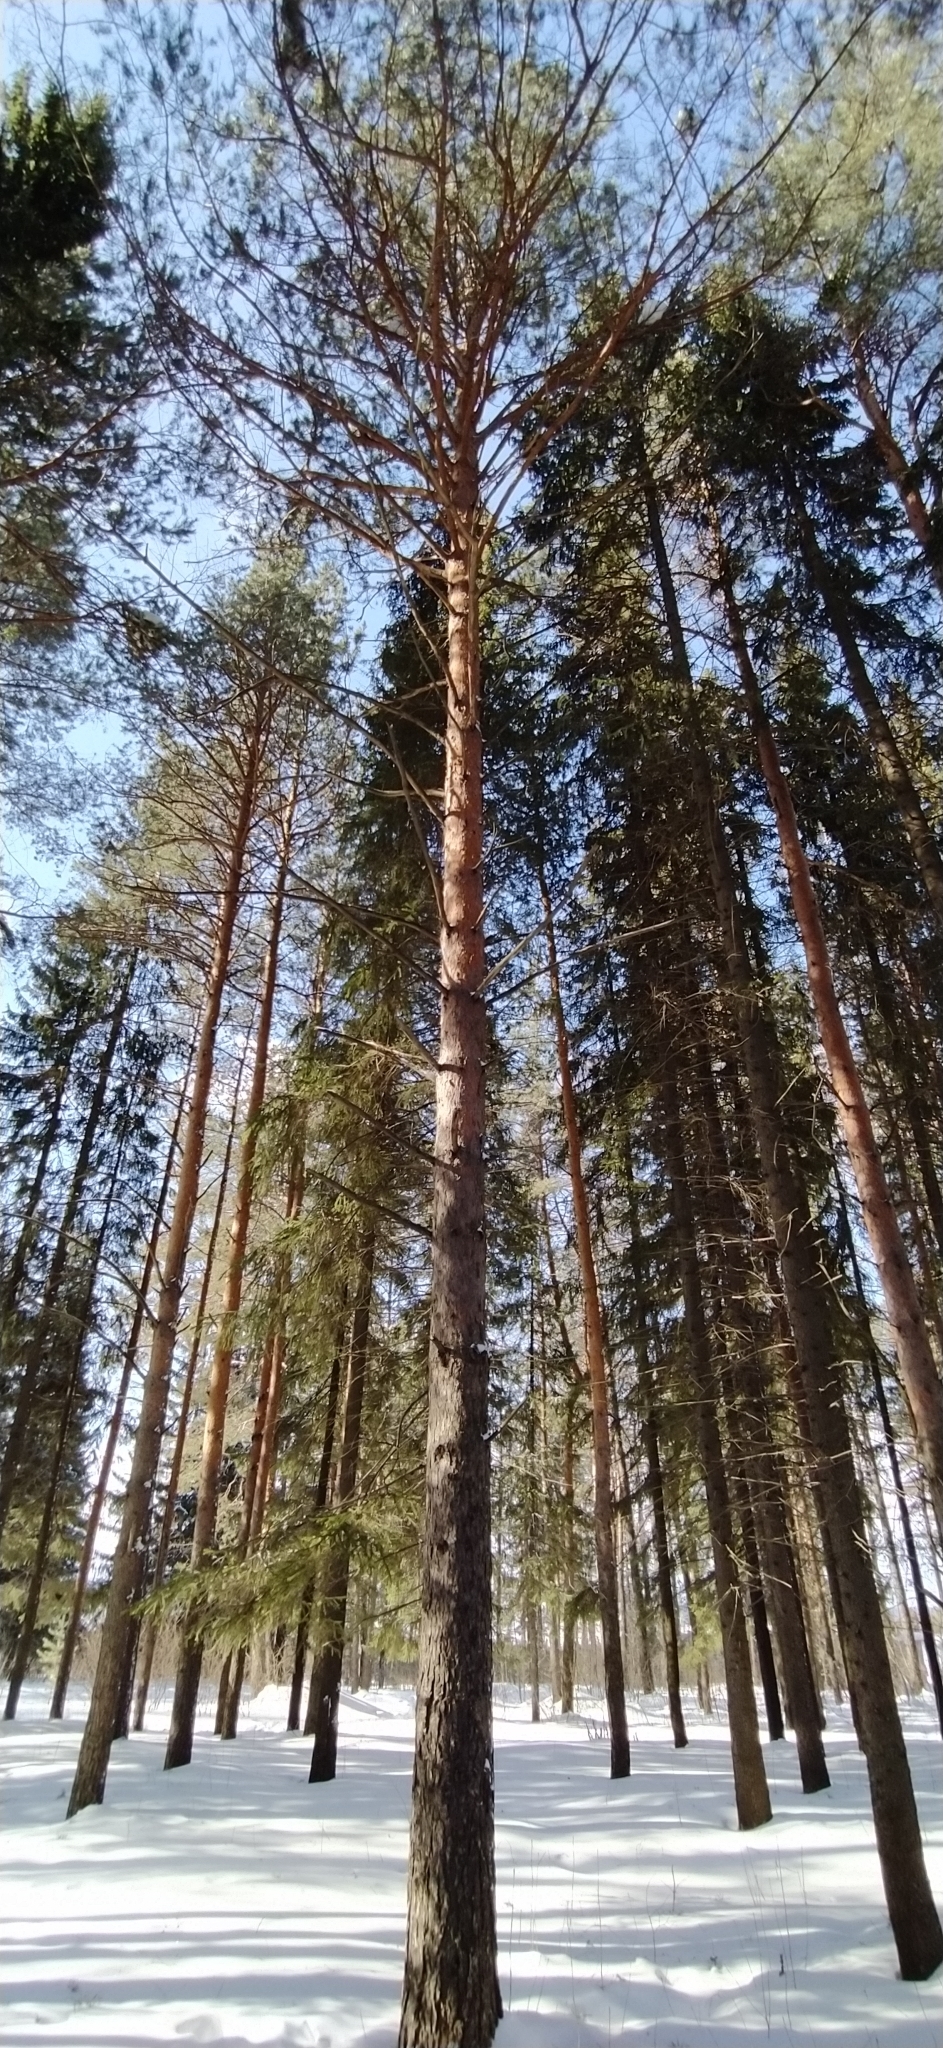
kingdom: Plantae
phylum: Tracheophyta
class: Pinopsida
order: Pinales
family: Pinaceae
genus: Pinus
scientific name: Pinus sylvestris
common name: Scots pine
